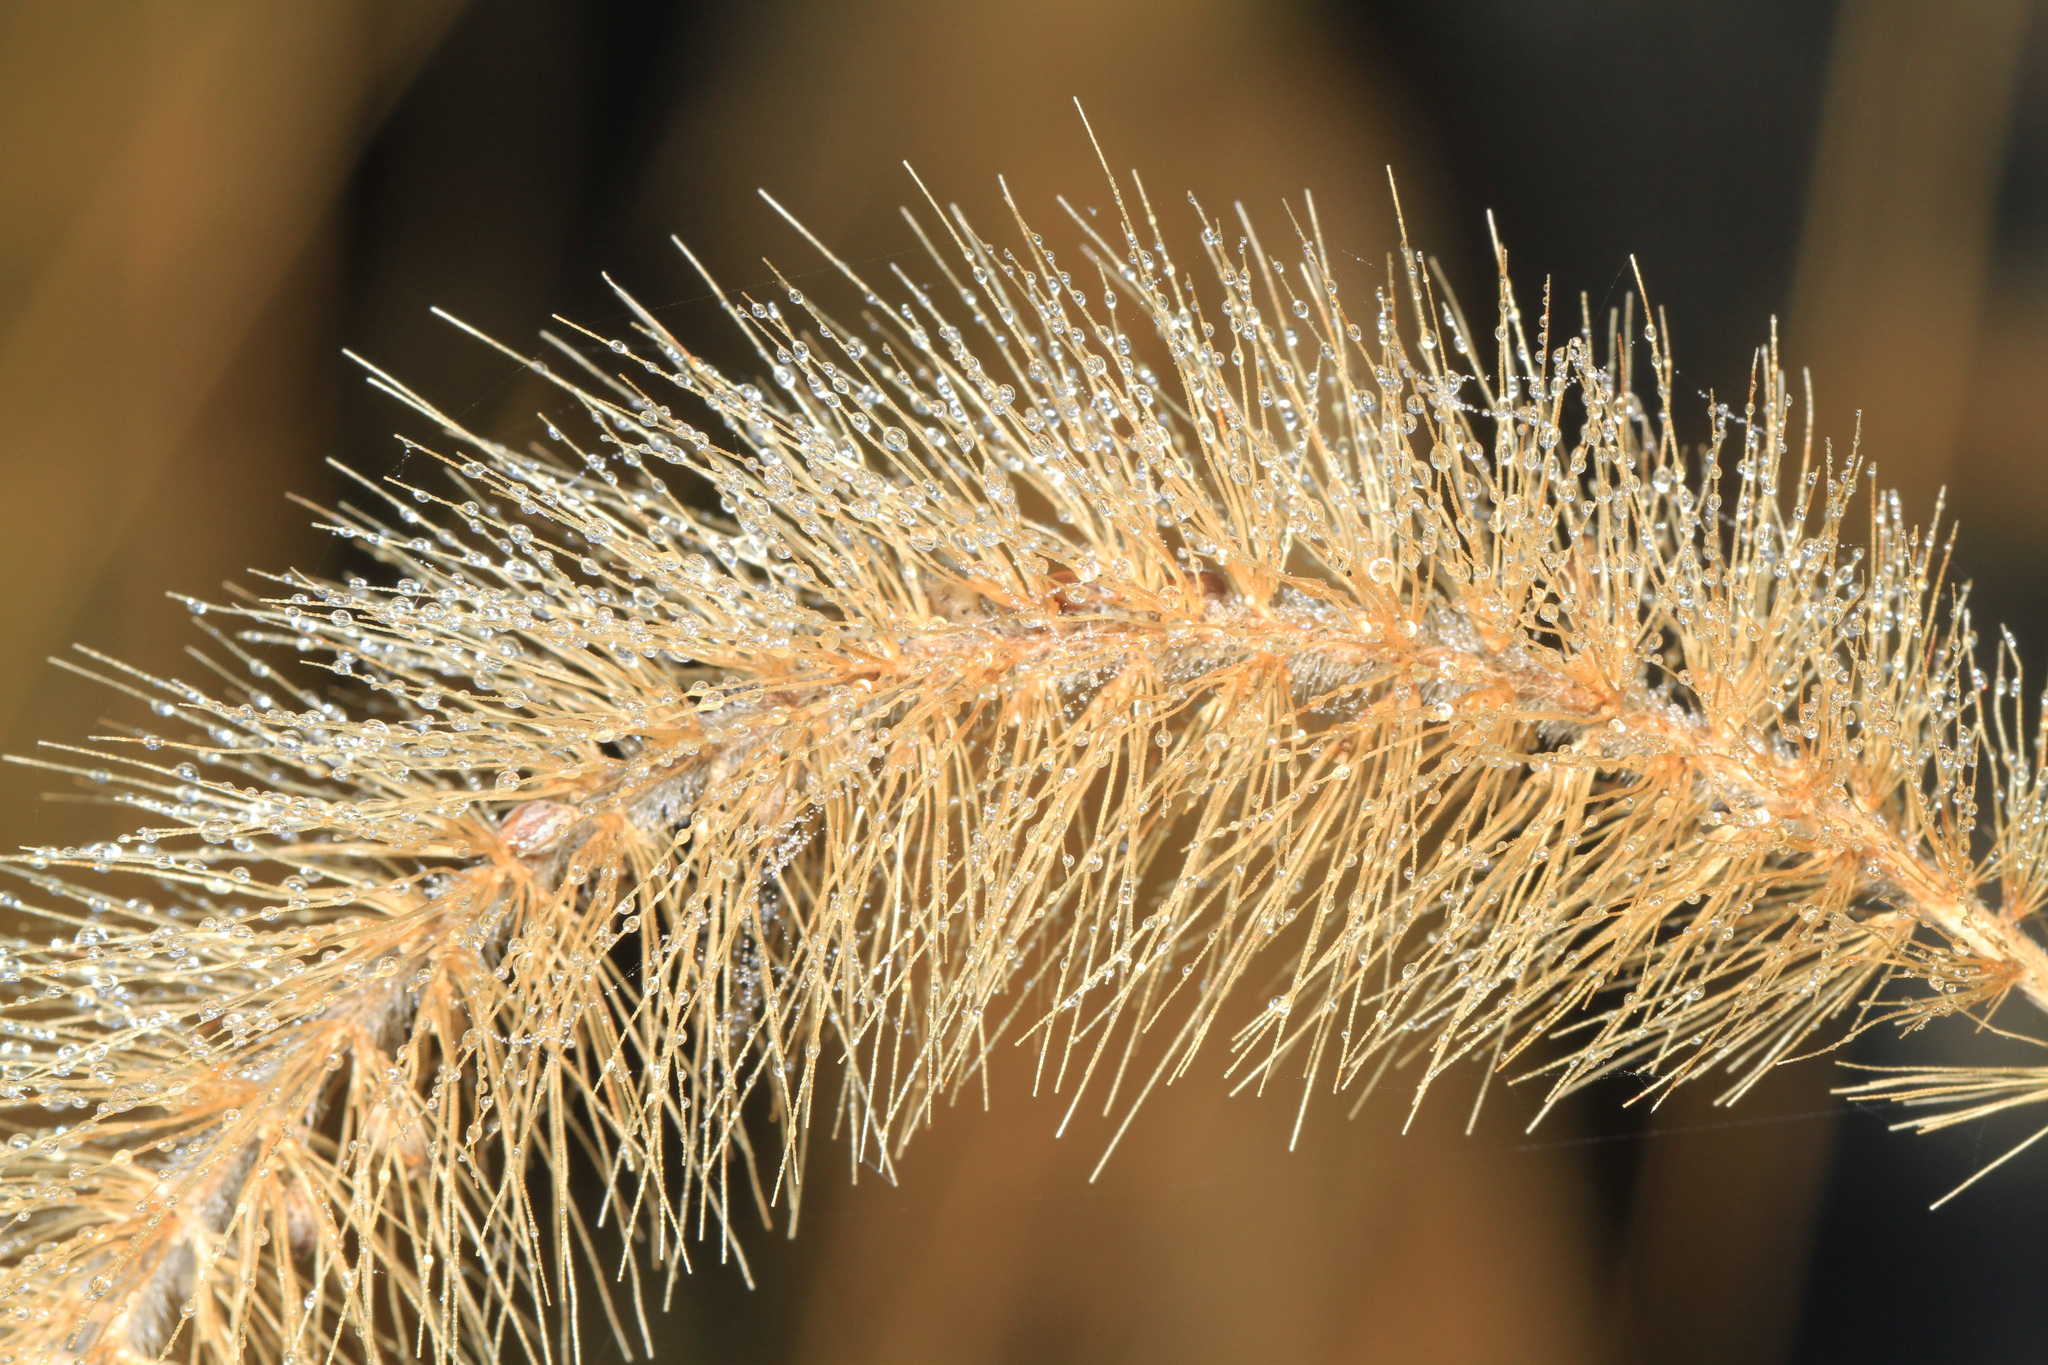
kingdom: Plantae
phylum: Tracheophyta
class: Liliopsida
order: Poales
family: Poaceae
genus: Setaria
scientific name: Setaria faberi
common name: Nodding bristle-grass
